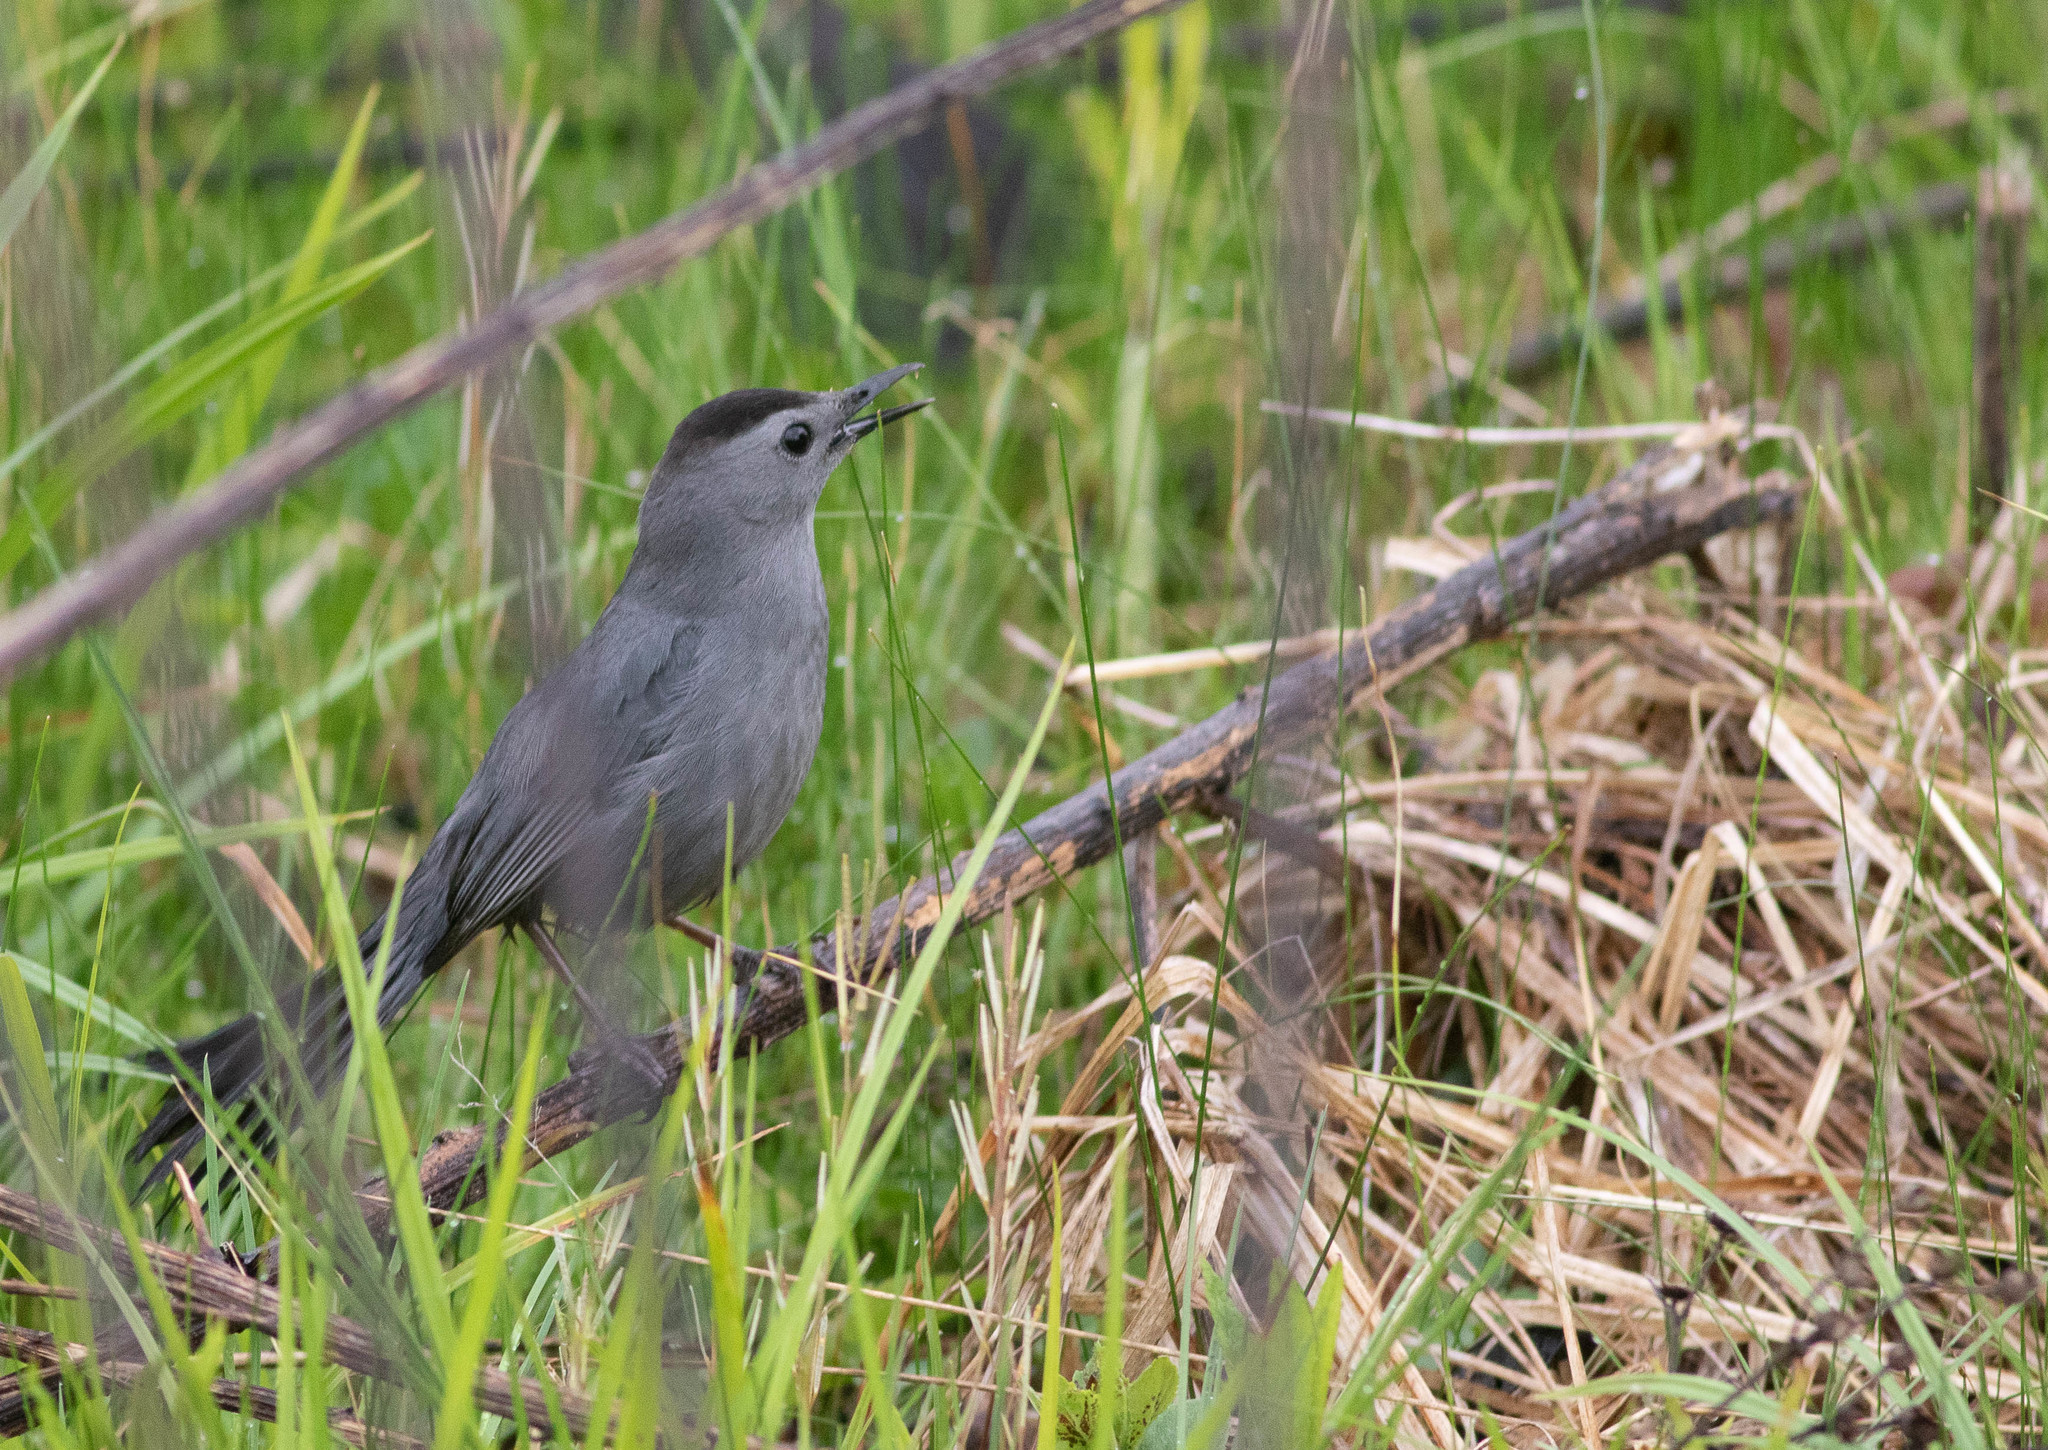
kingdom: Animalia
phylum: Chordata
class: Aves
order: Passeriformes
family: Mimidae
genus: Dumetella
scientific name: Dumetella carolinensis
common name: Gray catbird
